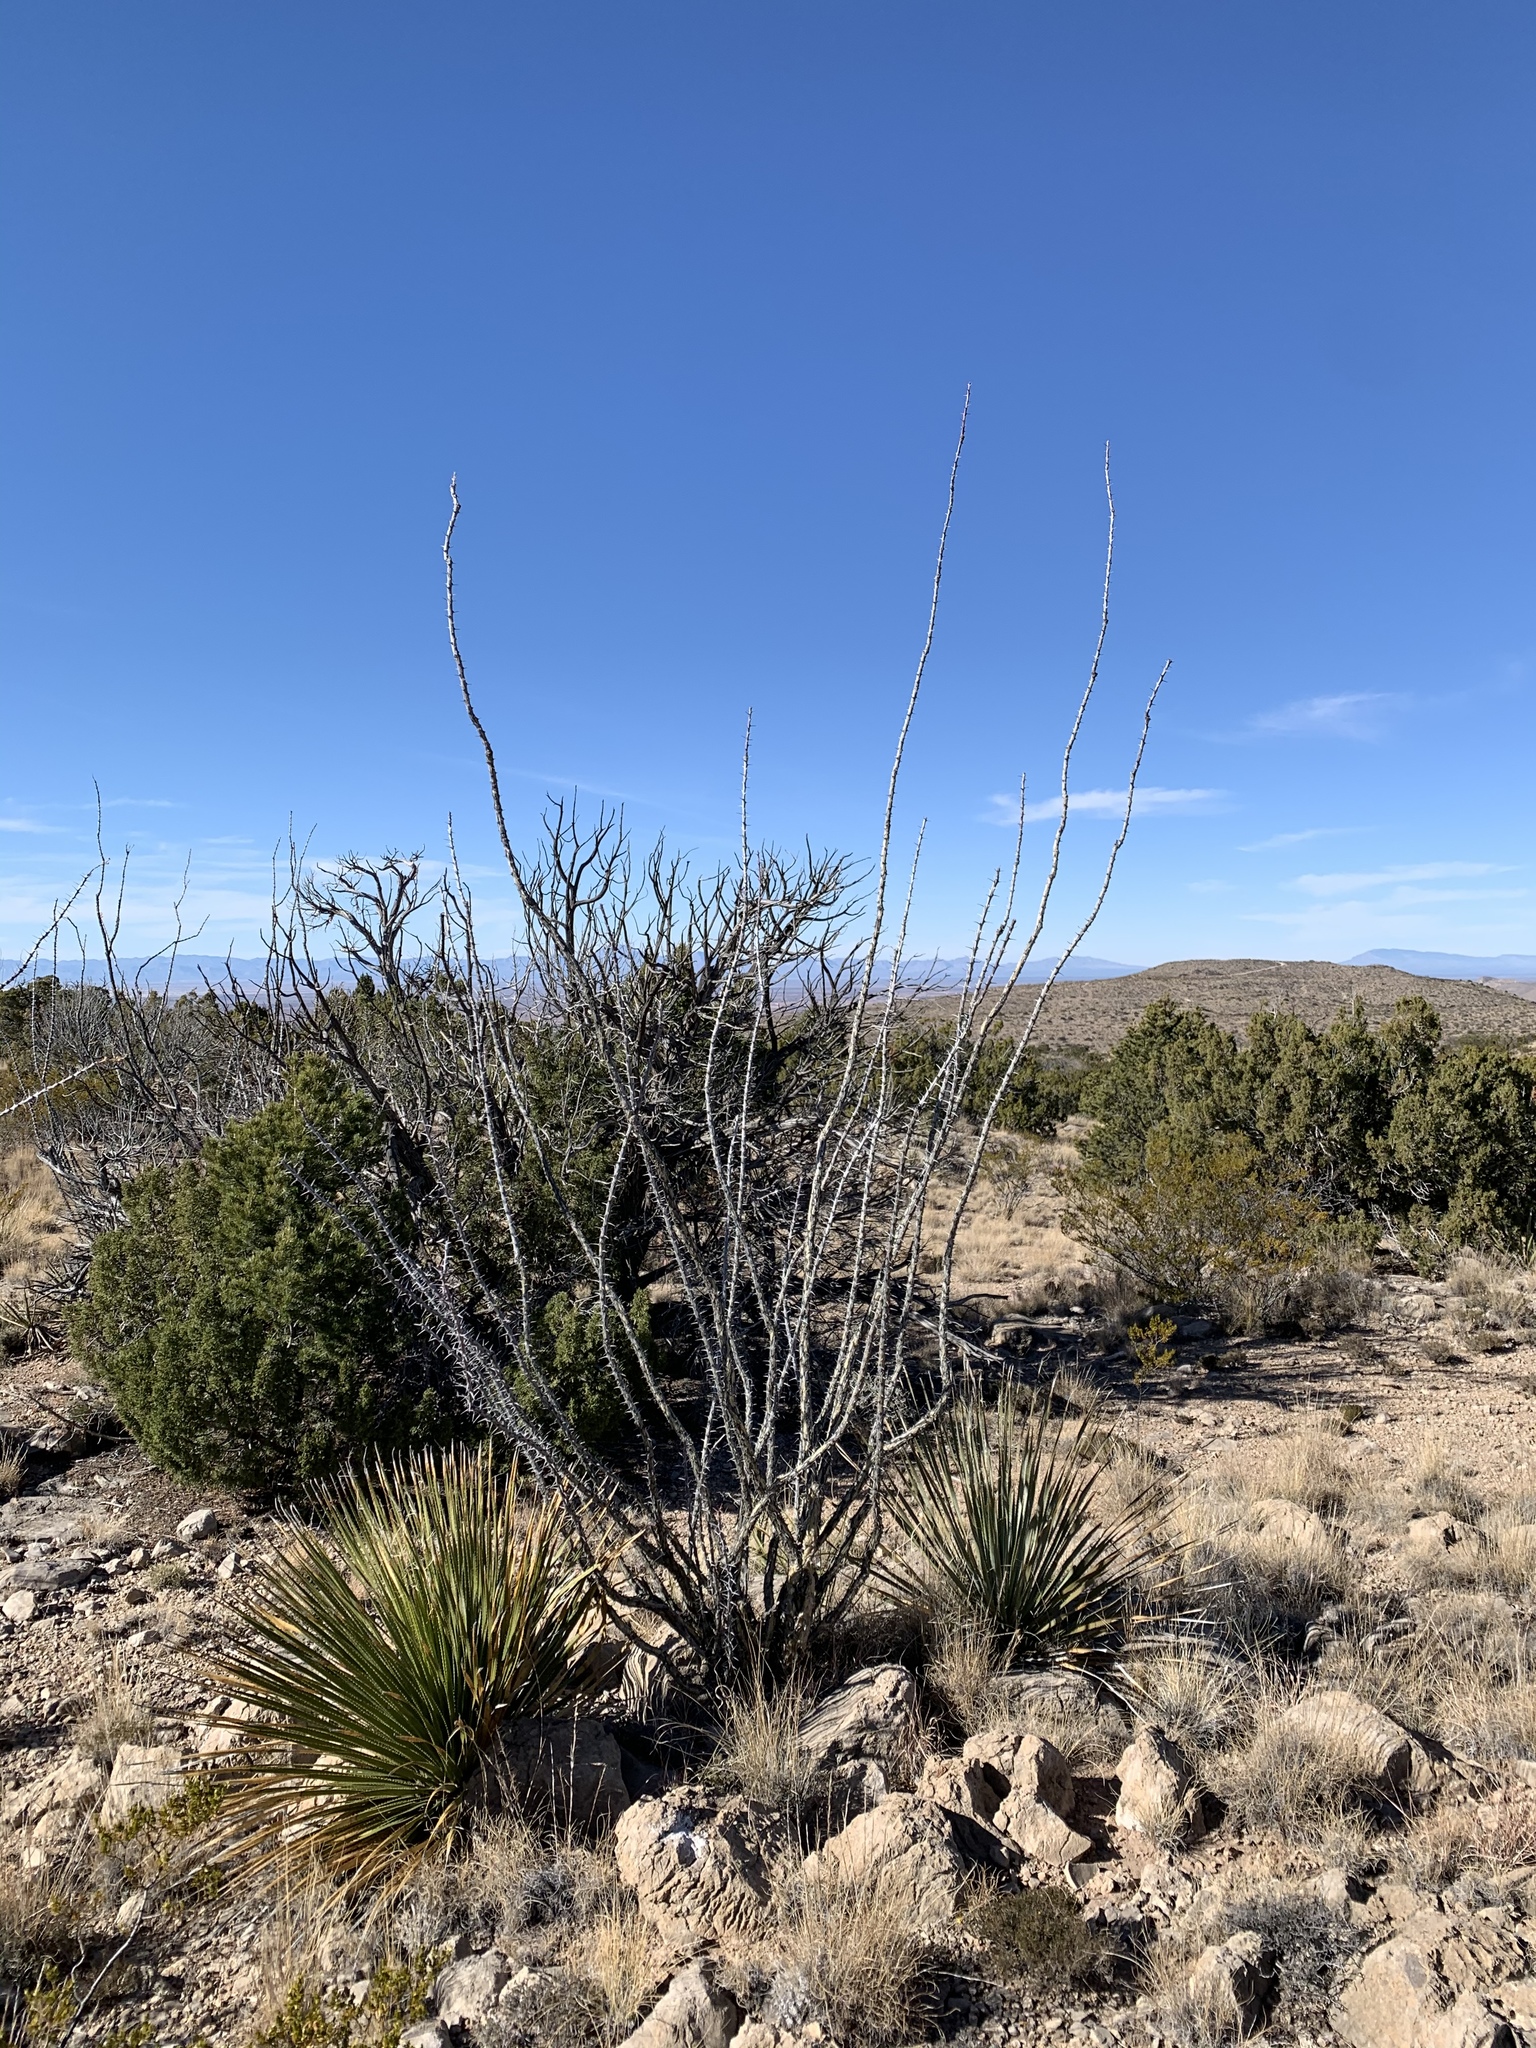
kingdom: Plantae
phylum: Tracheophyta
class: Magnoliopsida
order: Ericales
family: Fouquieriaceae
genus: Fouquieria
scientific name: Fouquieria splendens
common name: Vine-cactus
